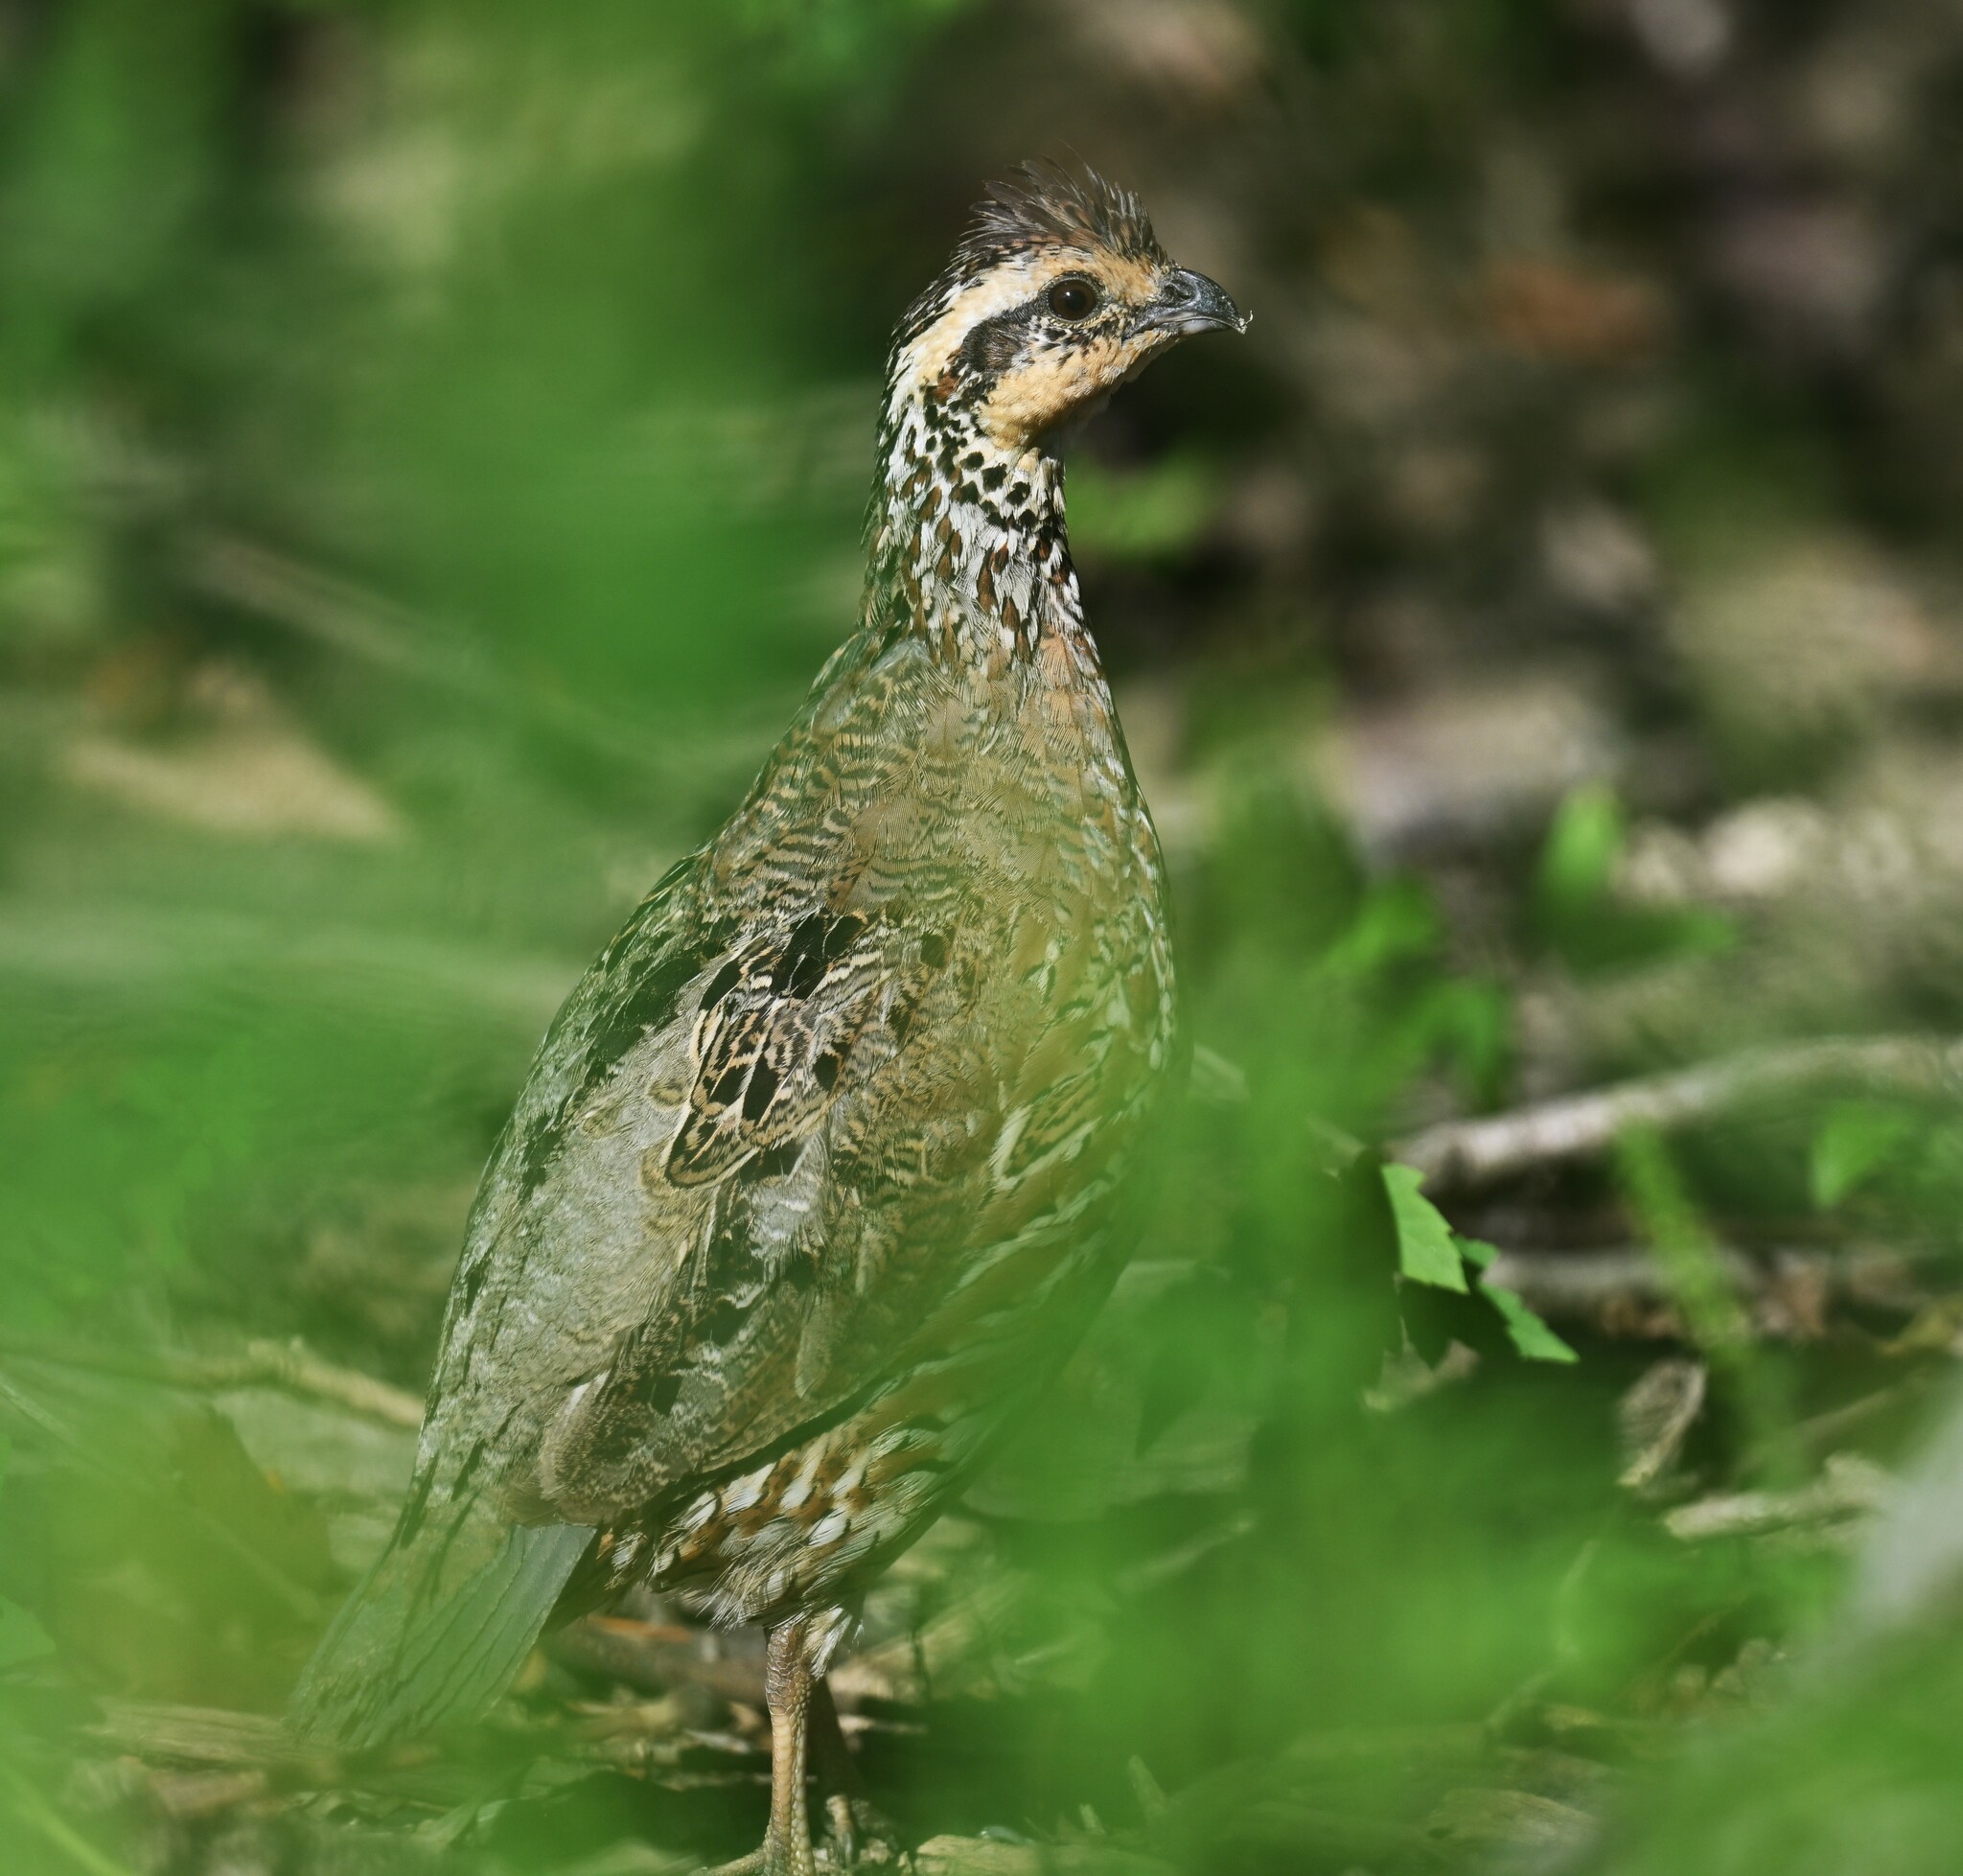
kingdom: Animalia
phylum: Chordata
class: Aves
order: Galliformes
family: Odontophoridae
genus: Colinus
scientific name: Colinus virginianus
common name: Northern bobwhite
